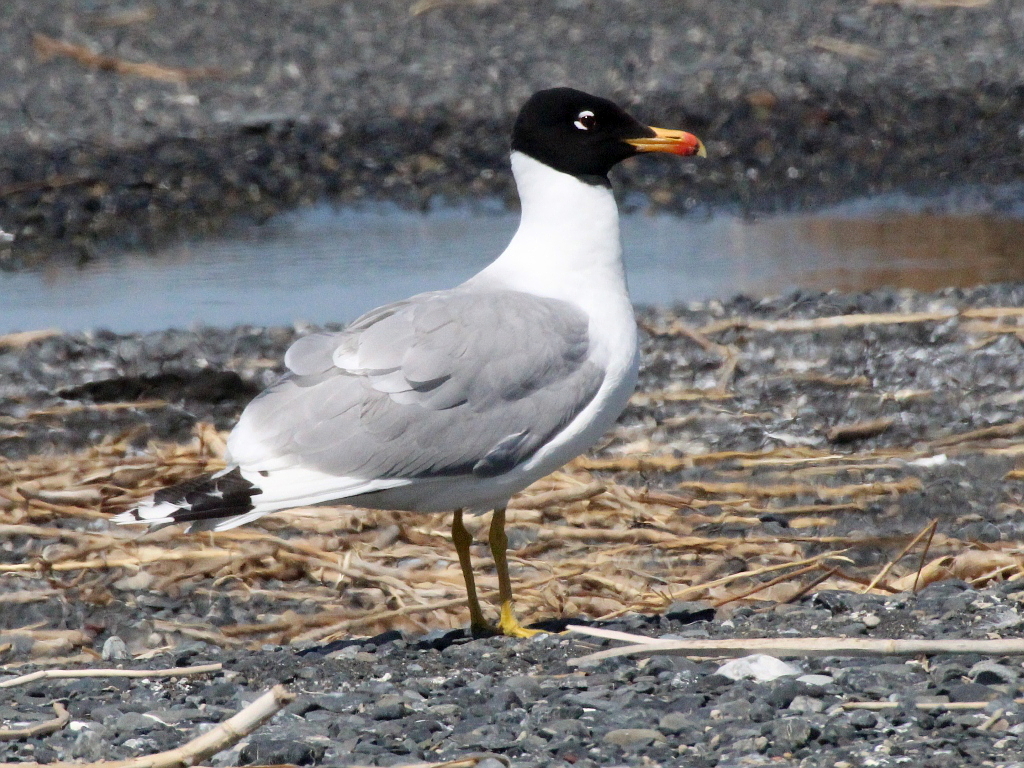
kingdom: Animalia
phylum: Chordata
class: Aves
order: Charadriiformes
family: Laridae
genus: Ichthyaetus
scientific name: Ichthyaetus ichthyaetus
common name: Pallas's gull
